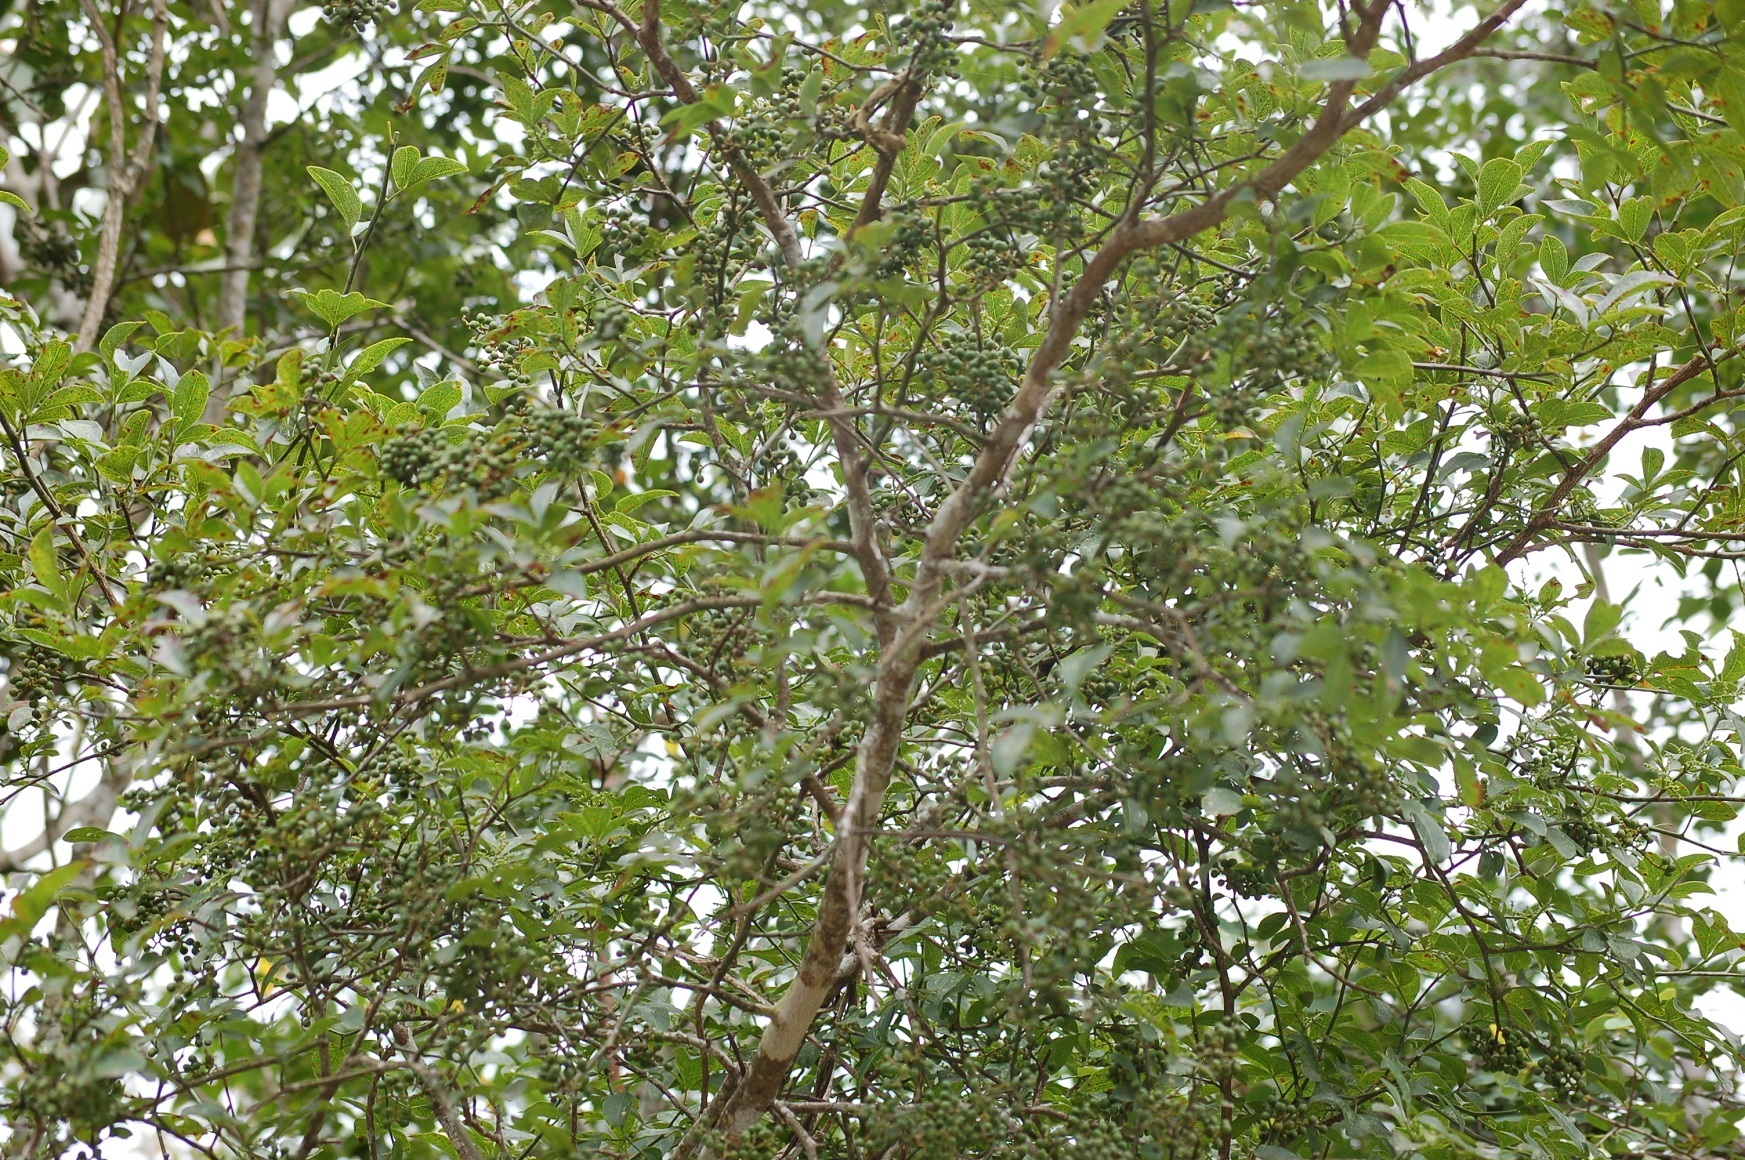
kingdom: Plantae
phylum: Tracheophyta
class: Magnoliopsida
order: Sapindales
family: Rutaceae
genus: Zanthoxylum
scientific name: Zanthoxylum limoncello
